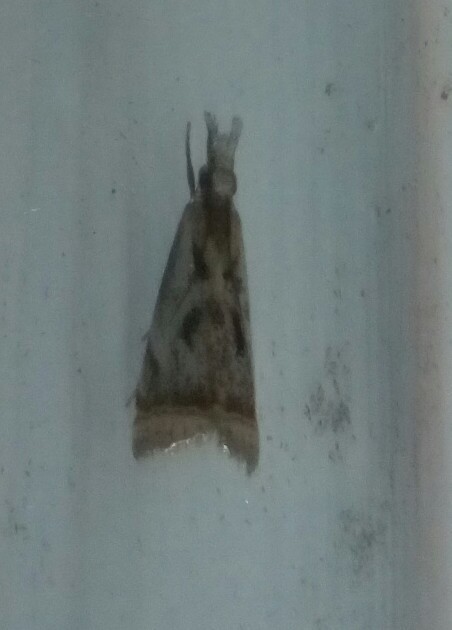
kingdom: Animalia
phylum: Arthropoda
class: Insecta
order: Lepidoptera
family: Crambidae
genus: Microcrambus
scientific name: Microcrambus elegans
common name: Elegant grass-veneer
